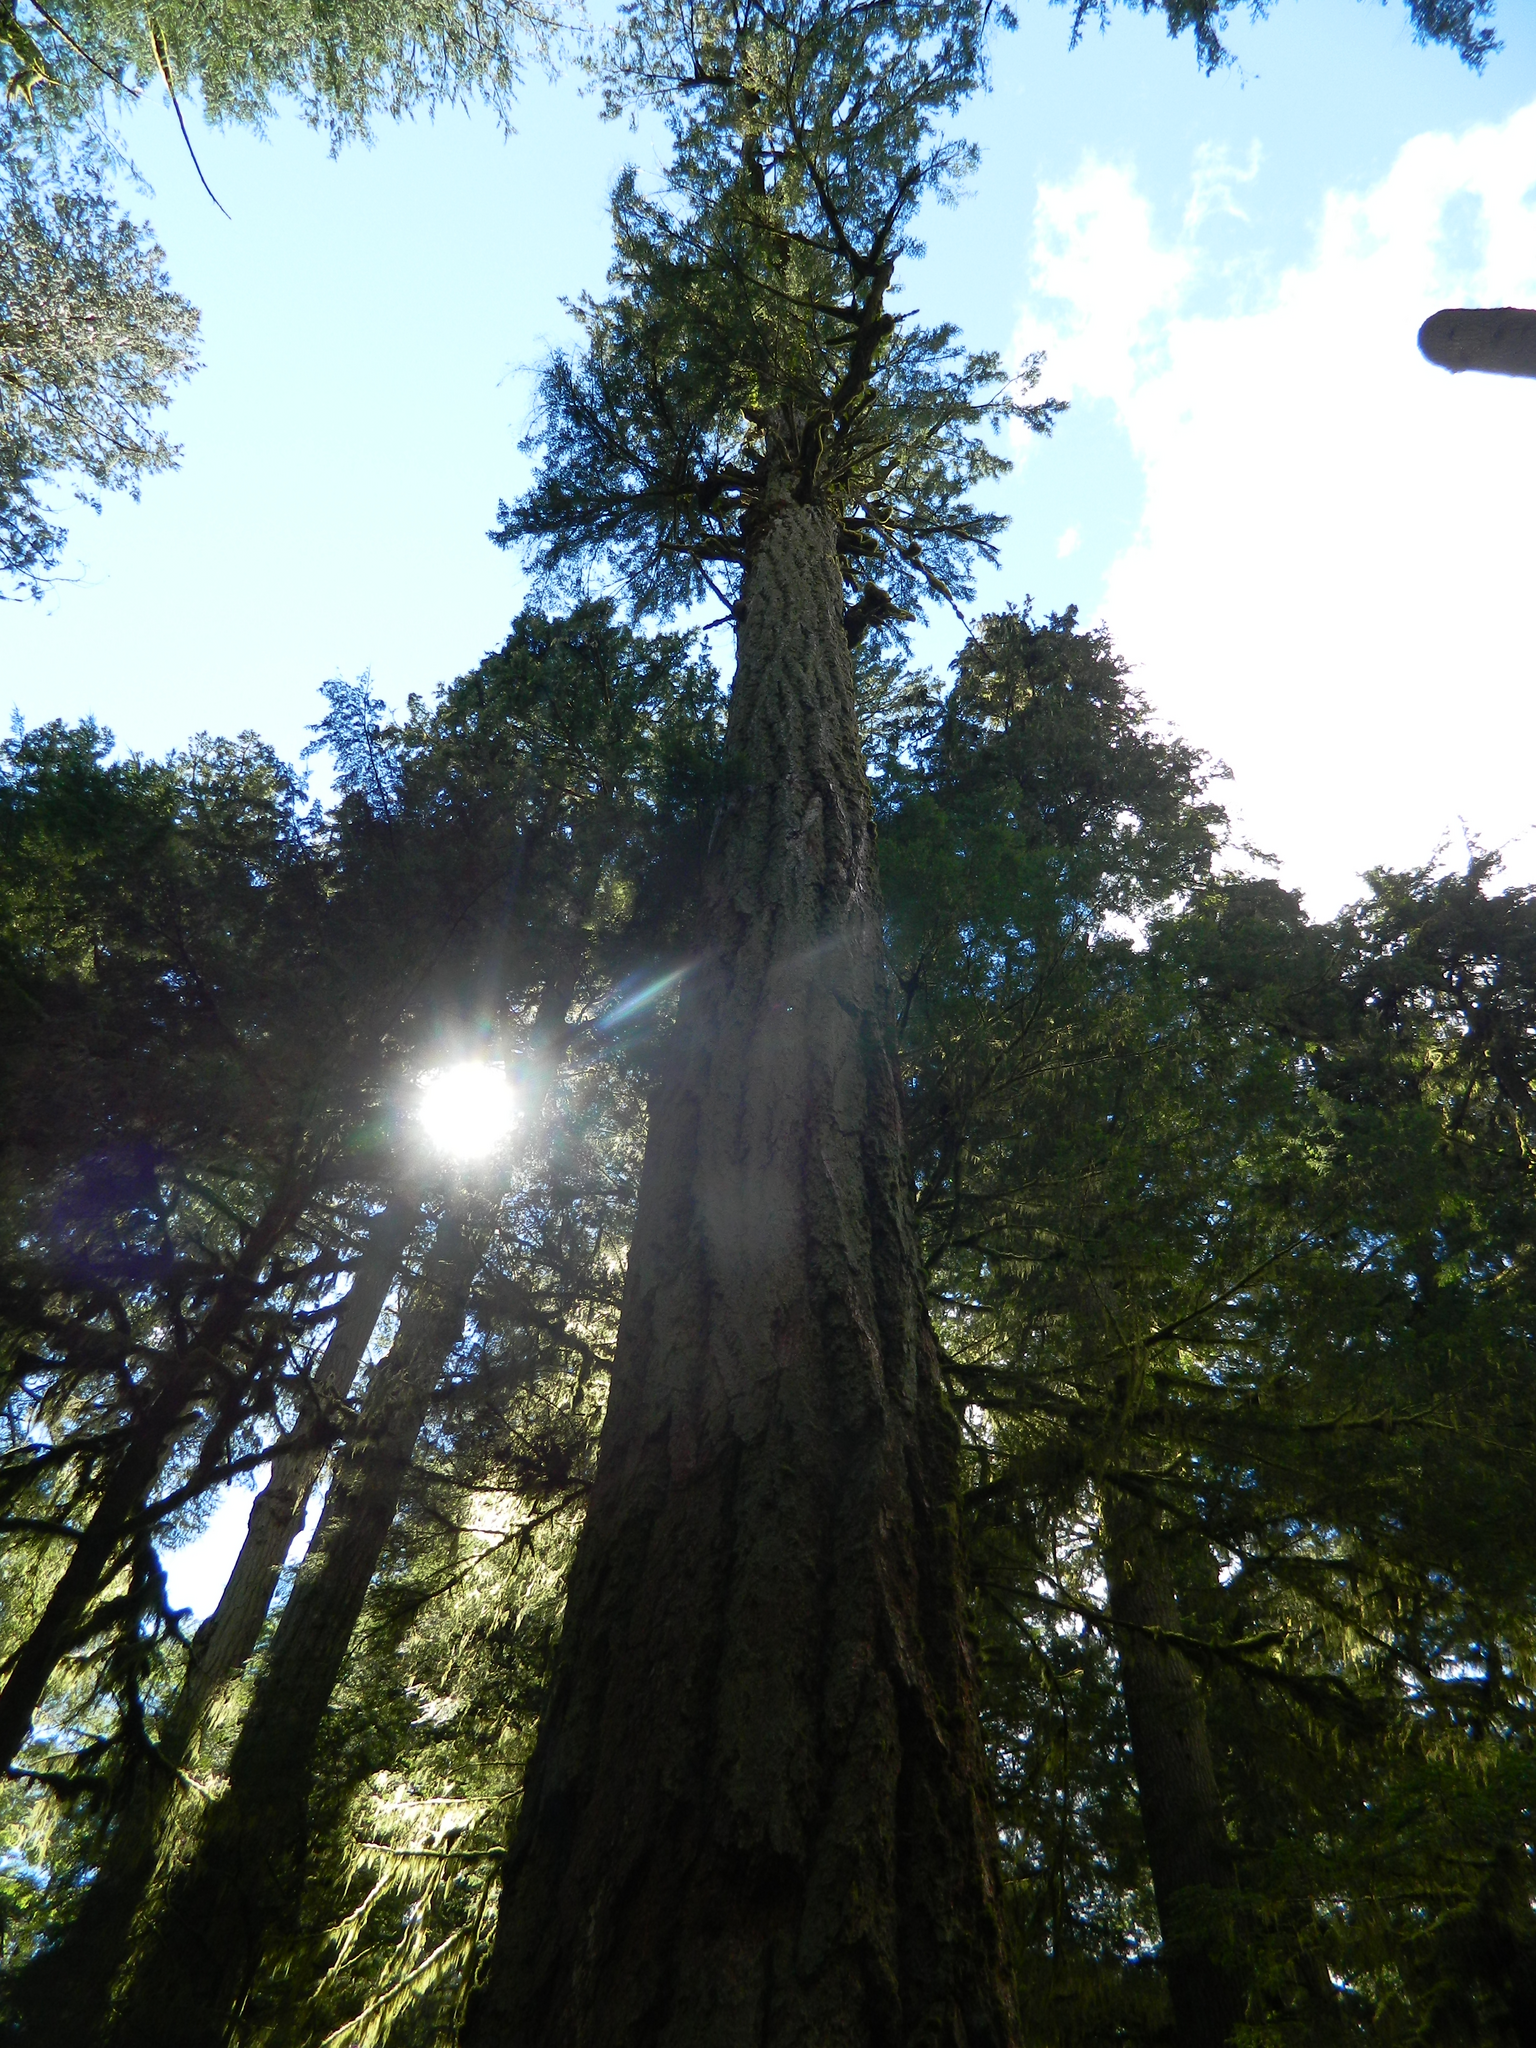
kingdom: Plantae
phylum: Tracheophyta
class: Pinopsida
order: Pinales
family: Pinaceae
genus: Pseudotsuga
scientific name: Pseudotsuga menziesii
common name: Douglas fir
